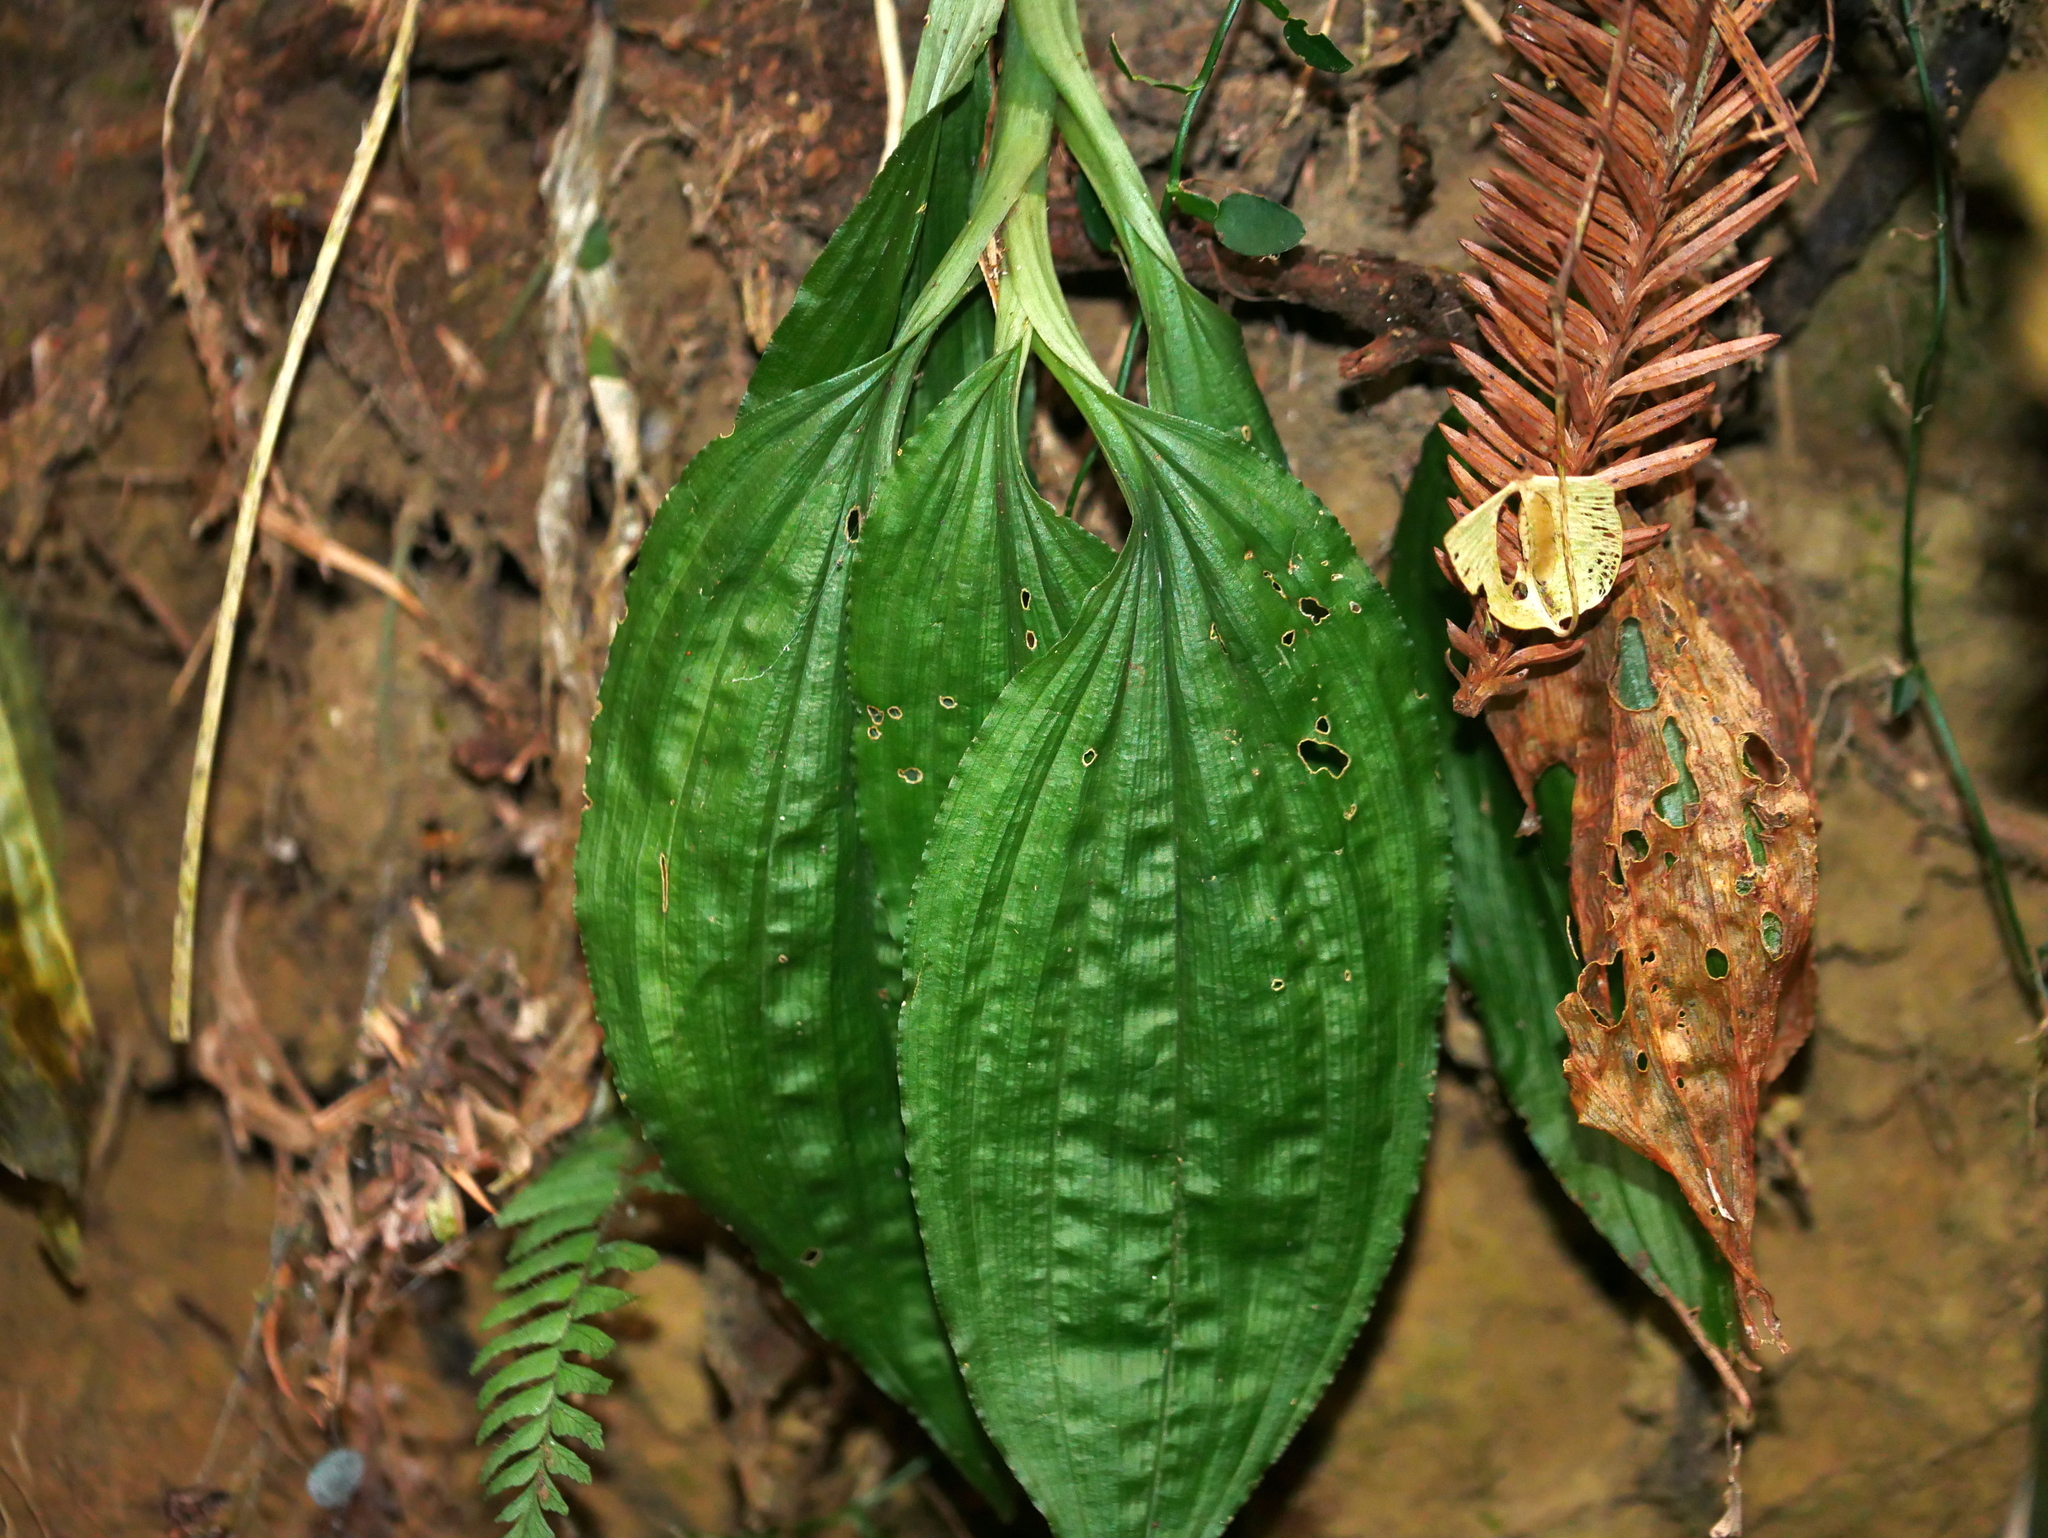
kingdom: Plantae
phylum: Tracheophyta
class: Liliopsida
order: Asparagales
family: Orchidaceae
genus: Liparis
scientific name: Liparis gigantea
